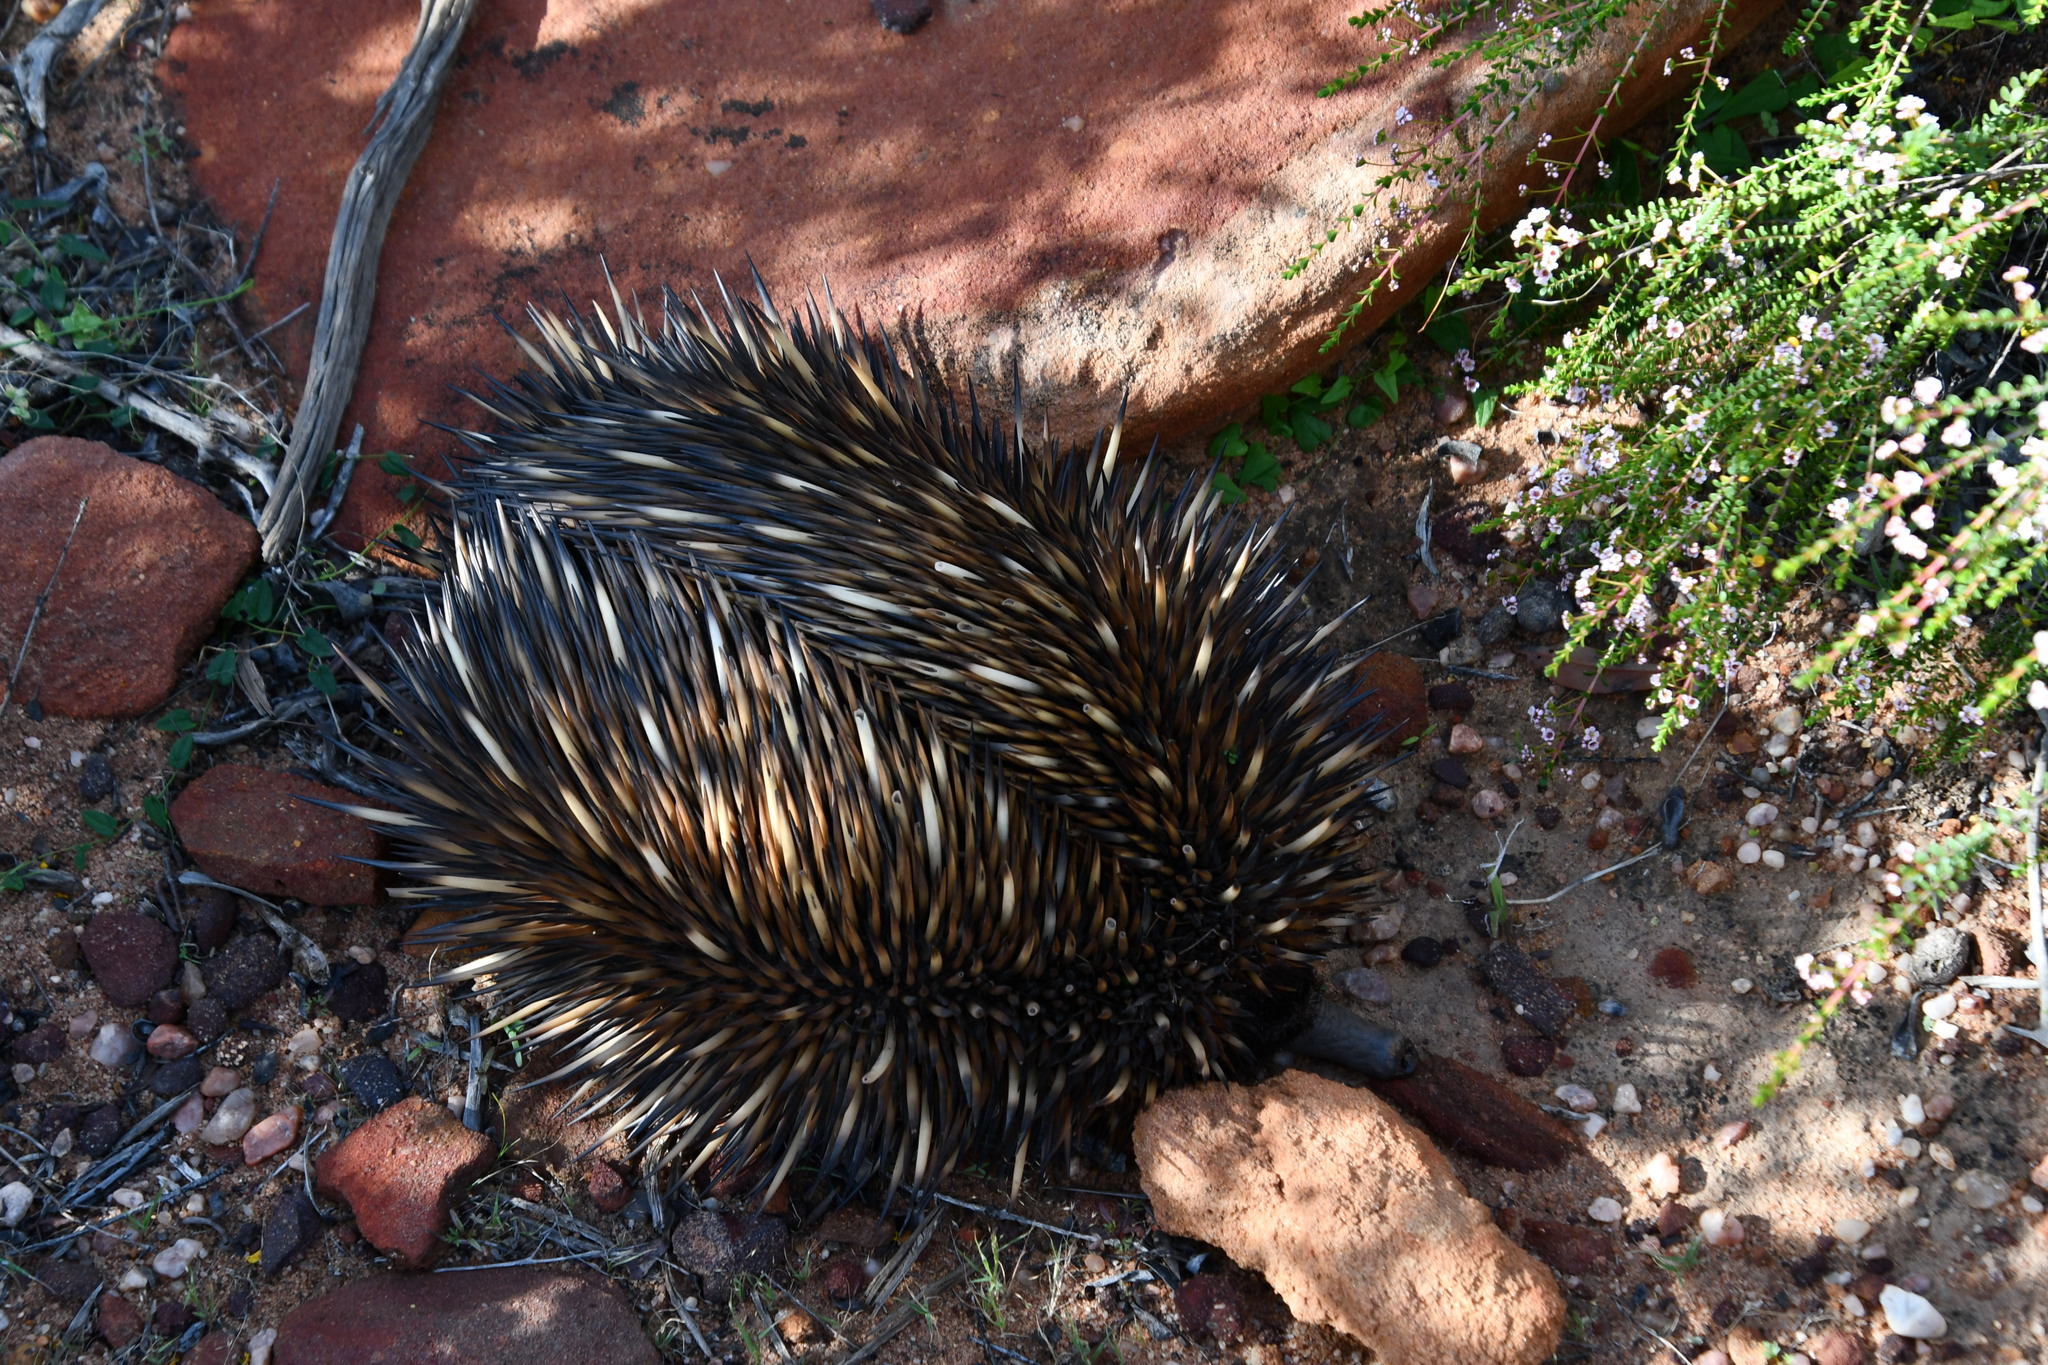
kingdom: Animalia
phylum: Chordata
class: Mammalia
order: Monotremata
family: Tachyglossidae
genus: Tachyglossus
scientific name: Tachyglossus aculeatus
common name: Short-beaked echidna
